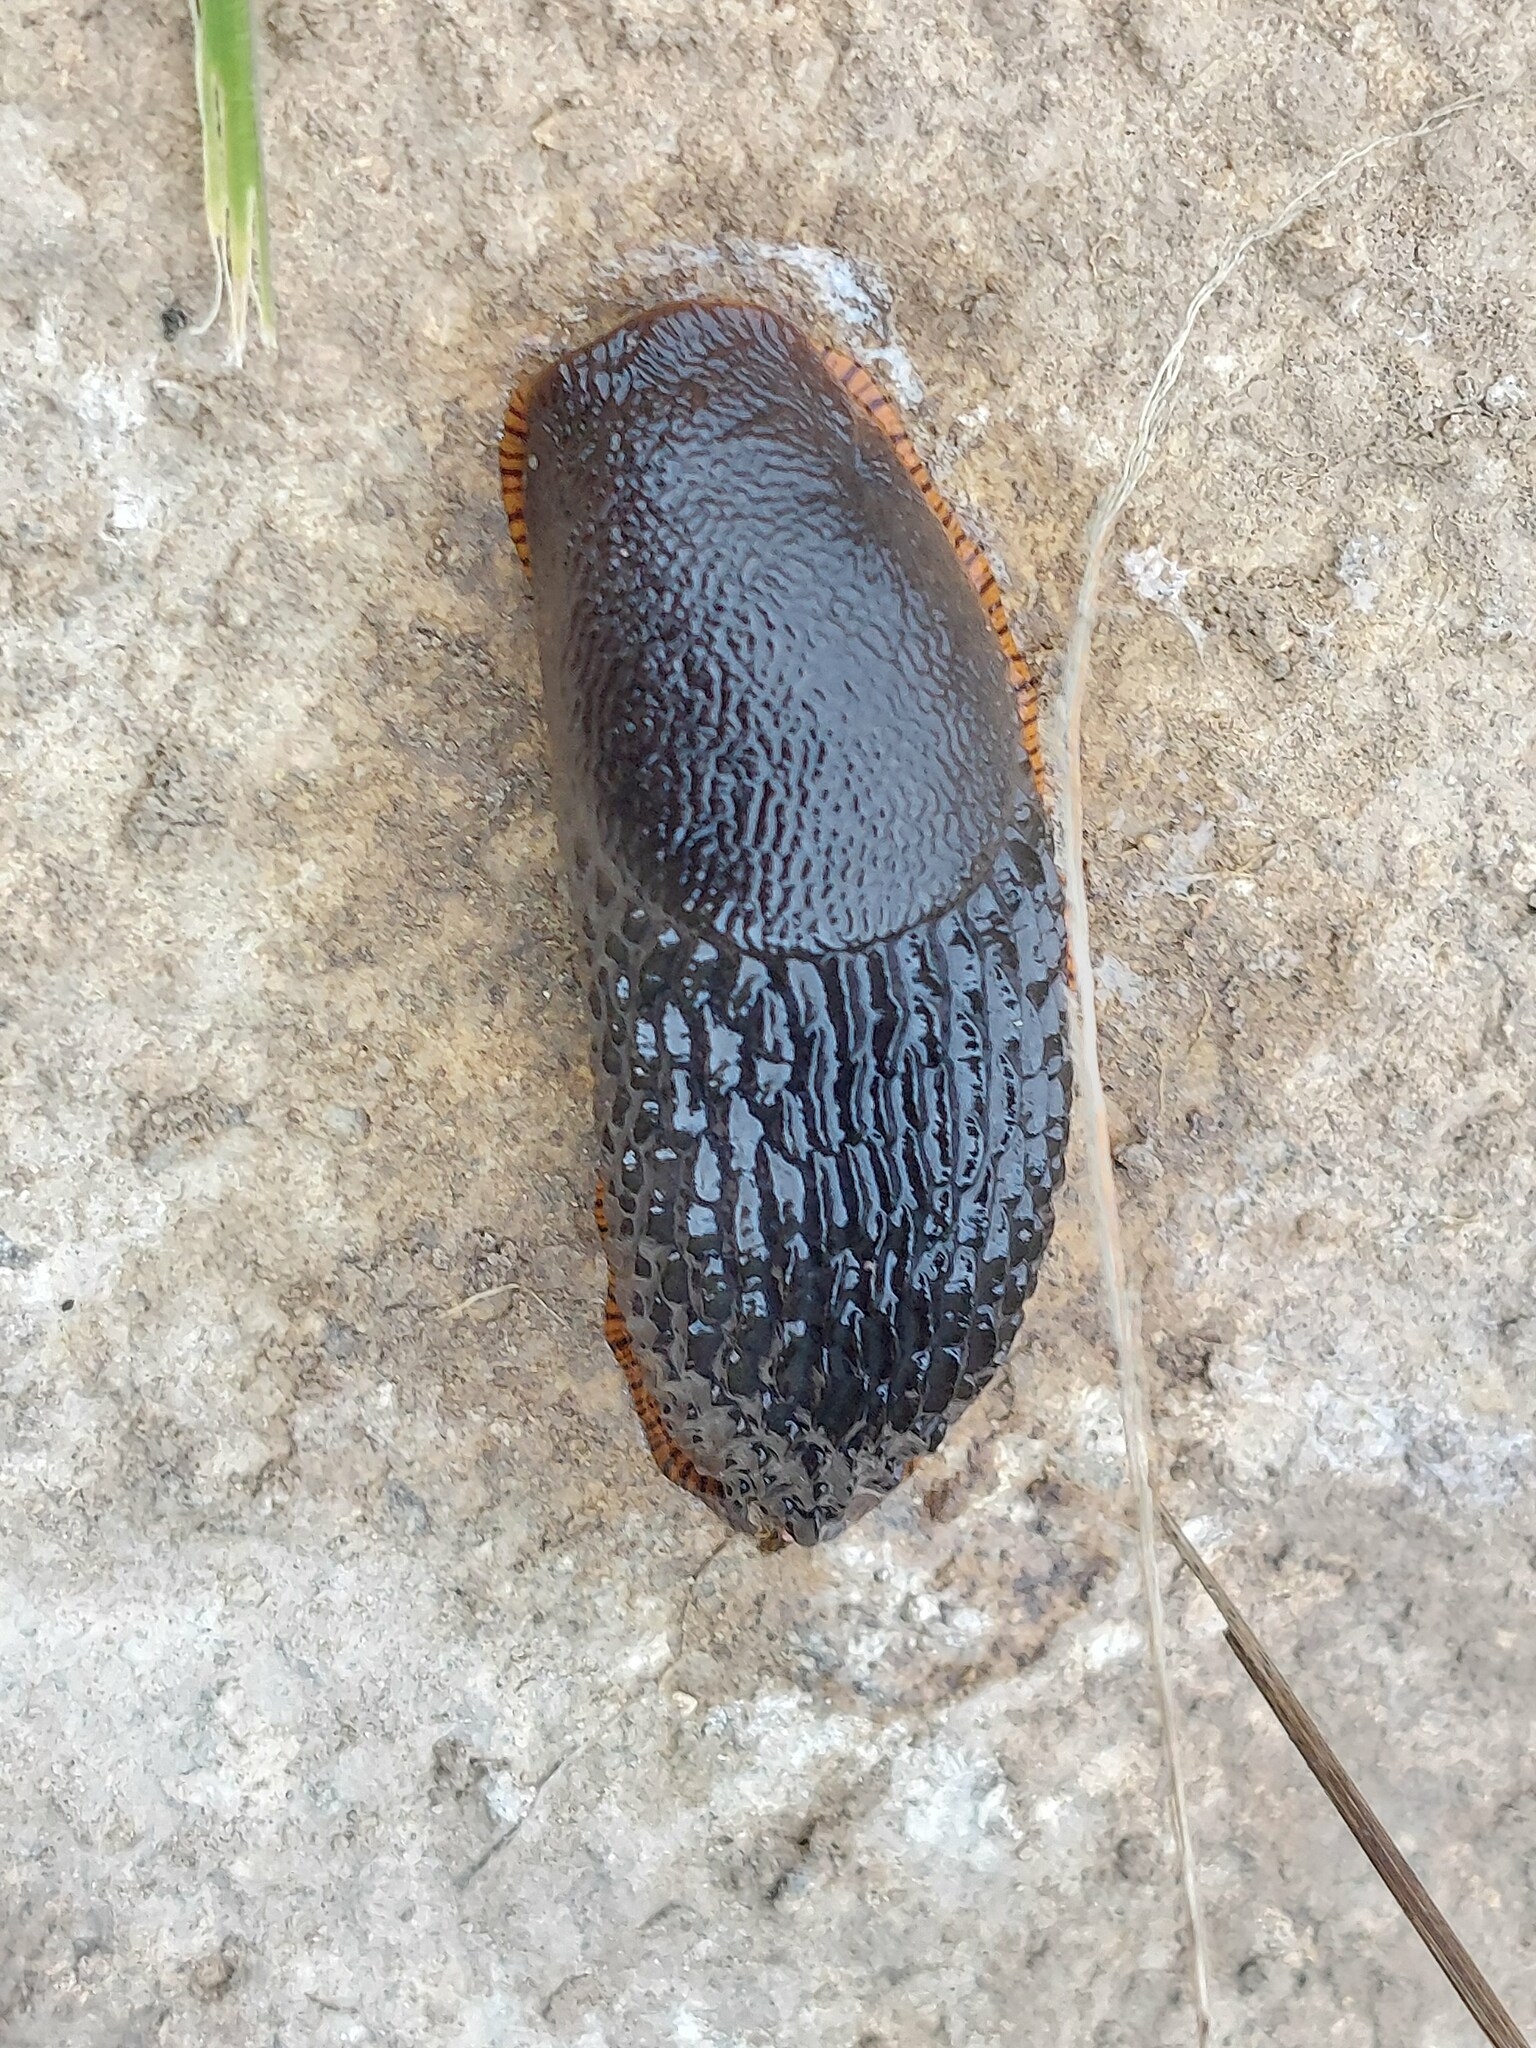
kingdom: Animalia
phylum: Mollusca
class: Gastropoda
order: Stylommatophora
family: Arionidae
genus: Arion
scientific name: Arion ater
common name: Black arion
